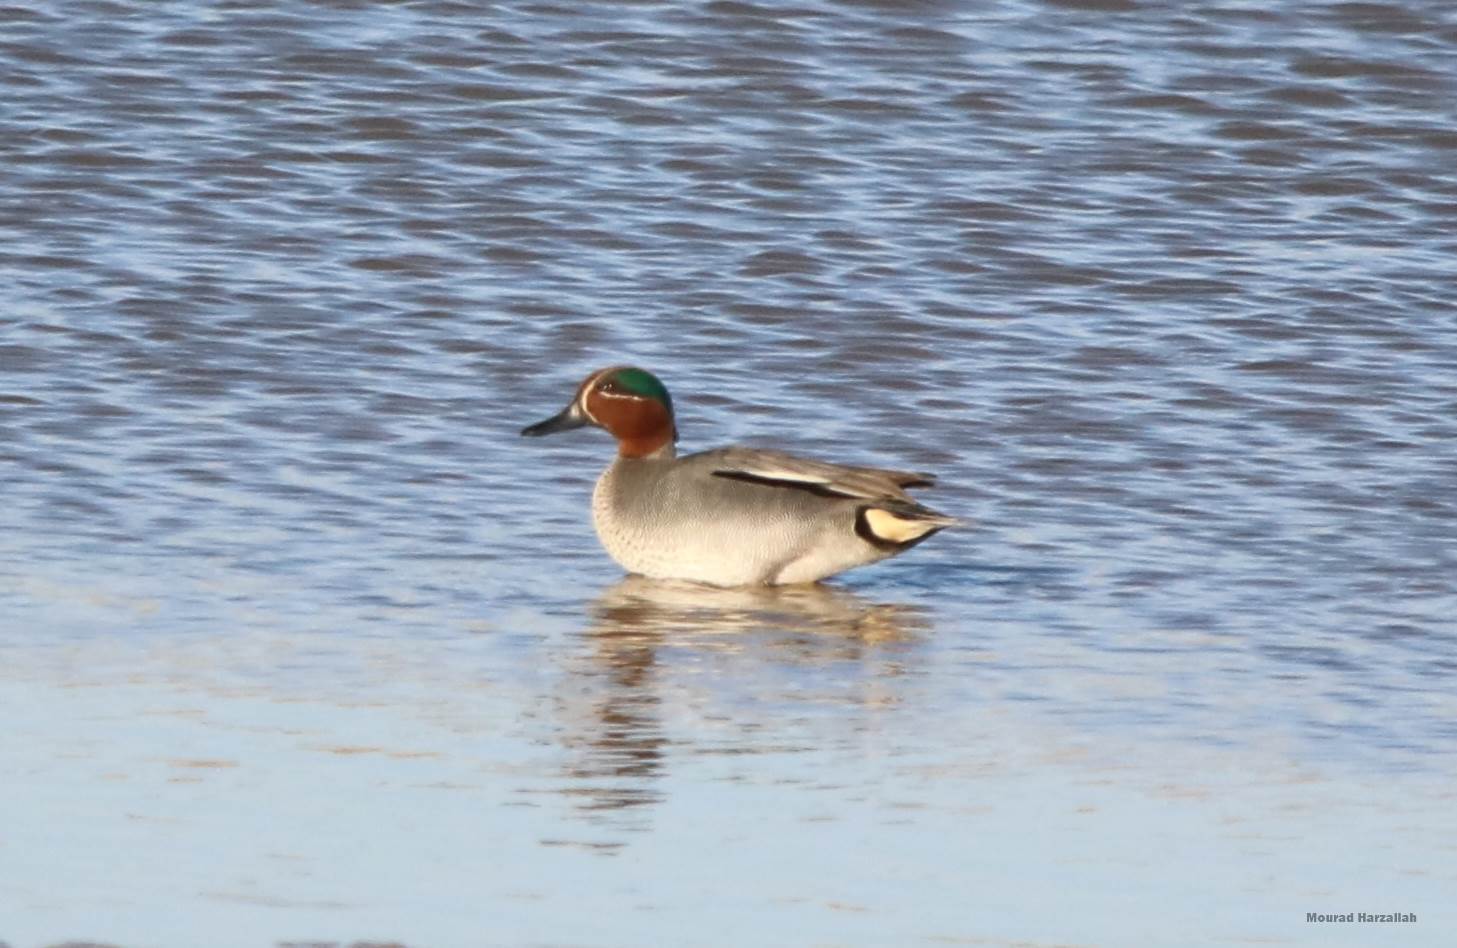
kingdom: Animalia
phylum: Chordata
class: Aves
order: Anseriformes
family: Anatidae
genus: Anas
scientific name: Anas crecca
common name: Eurasian teal
